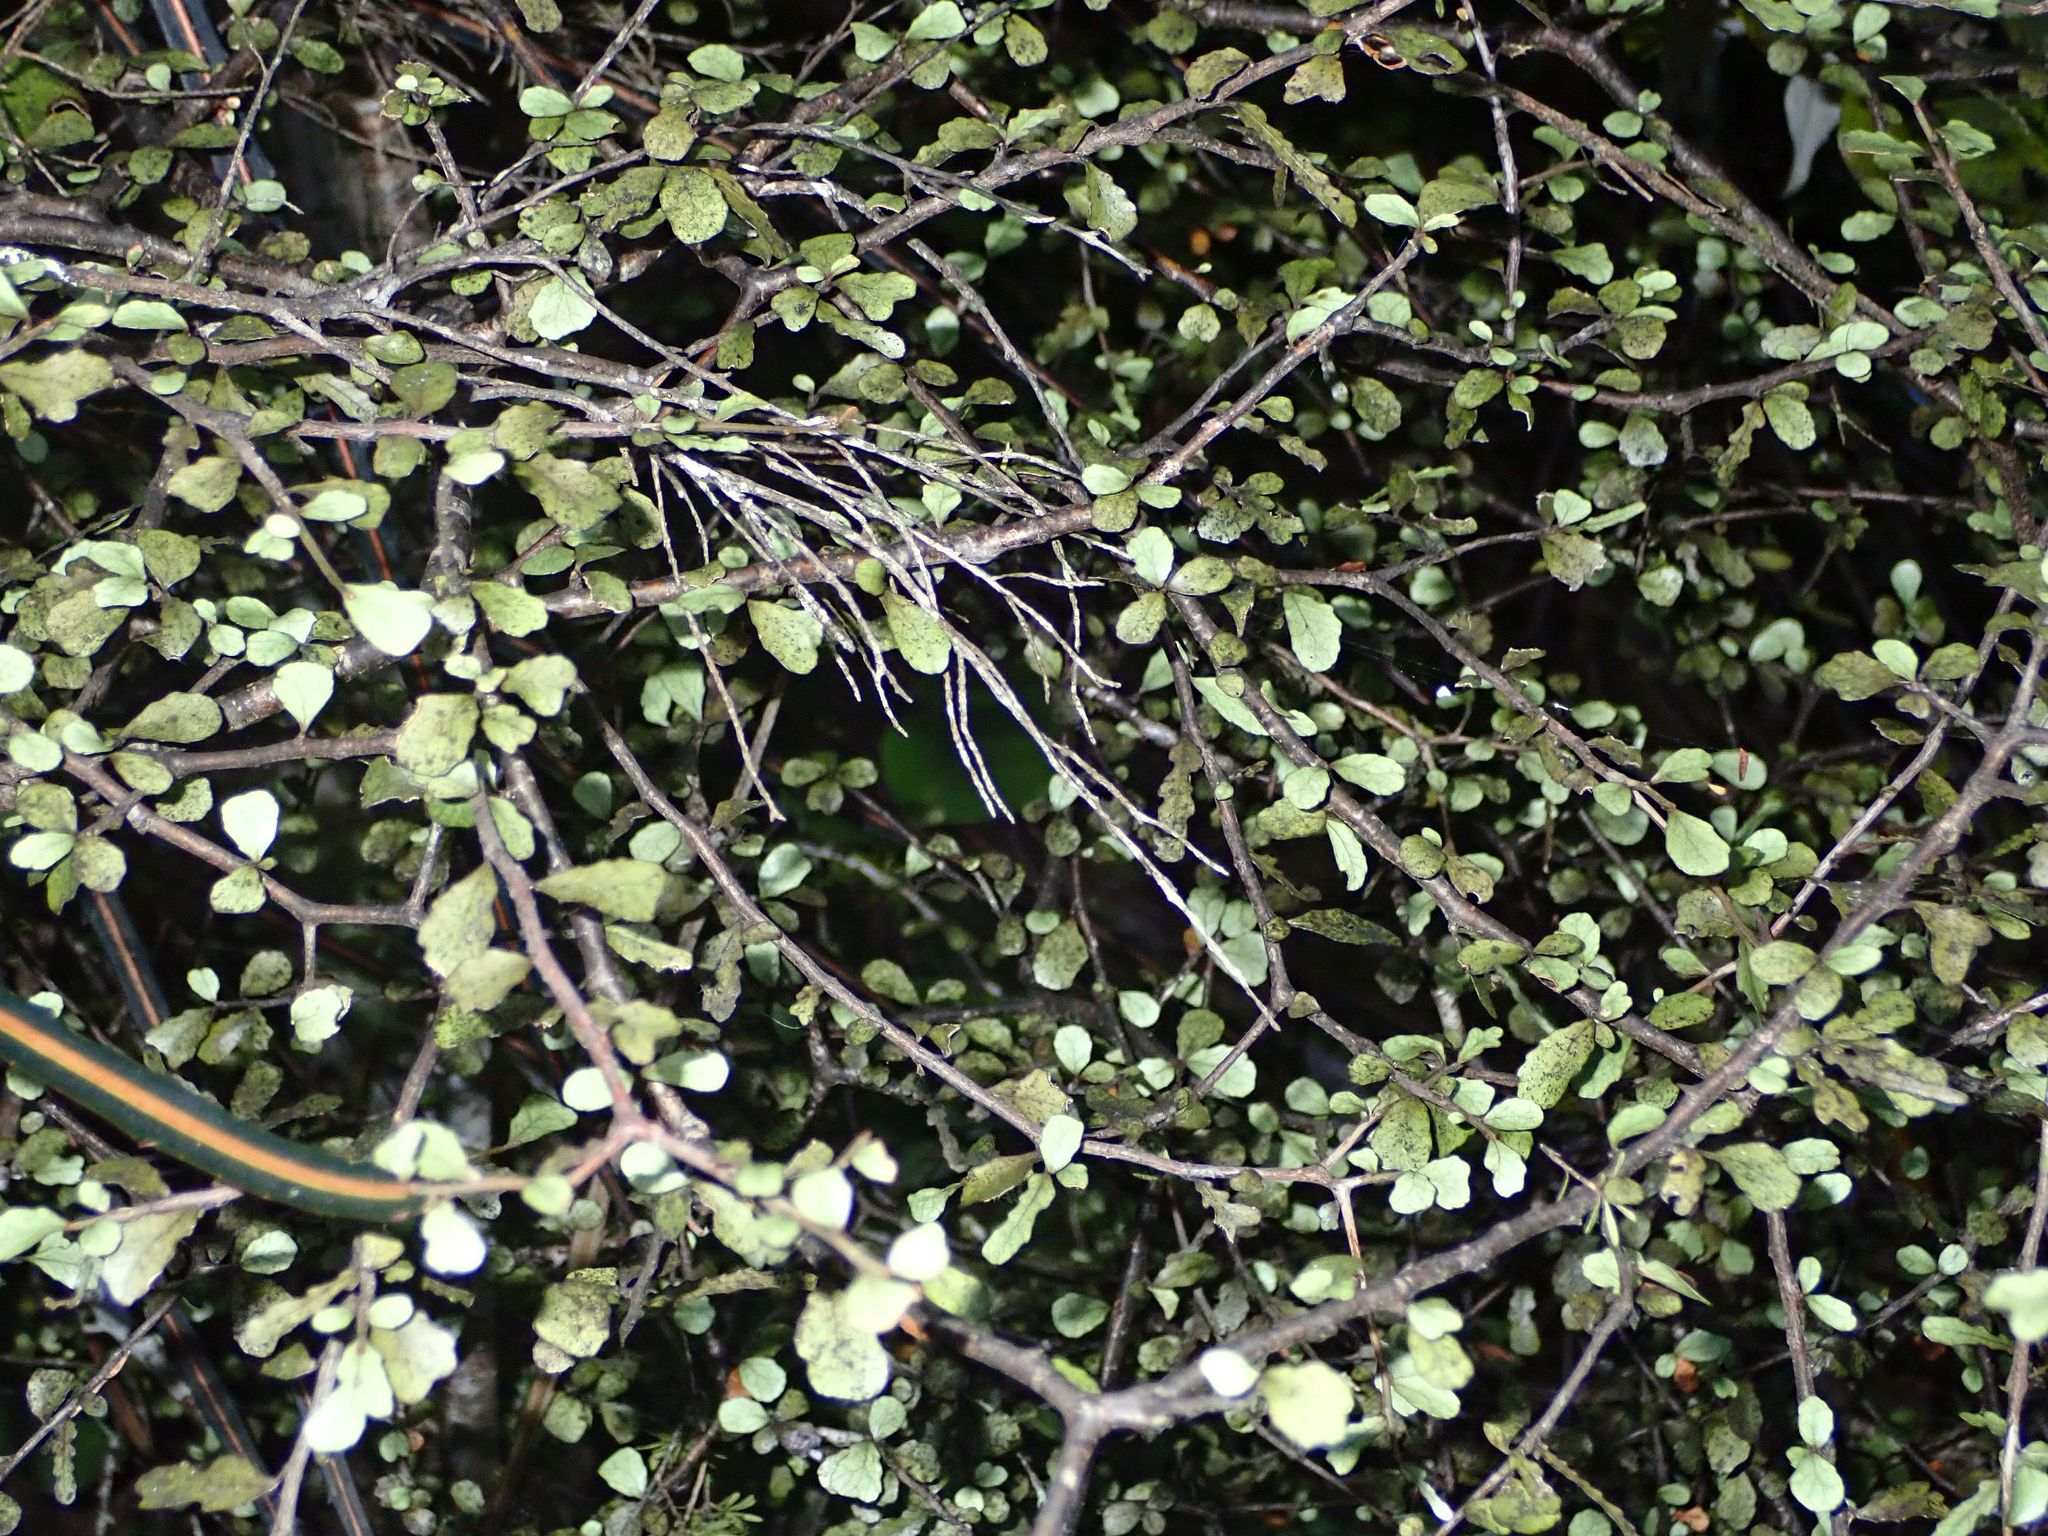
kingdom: Plantae
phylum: Tracheophyta
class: Magnoliopsida
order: Oxalidales
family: Elaeocarpaceae
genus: Elaeocarpus
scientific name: Elaeocarpus hookerianus
